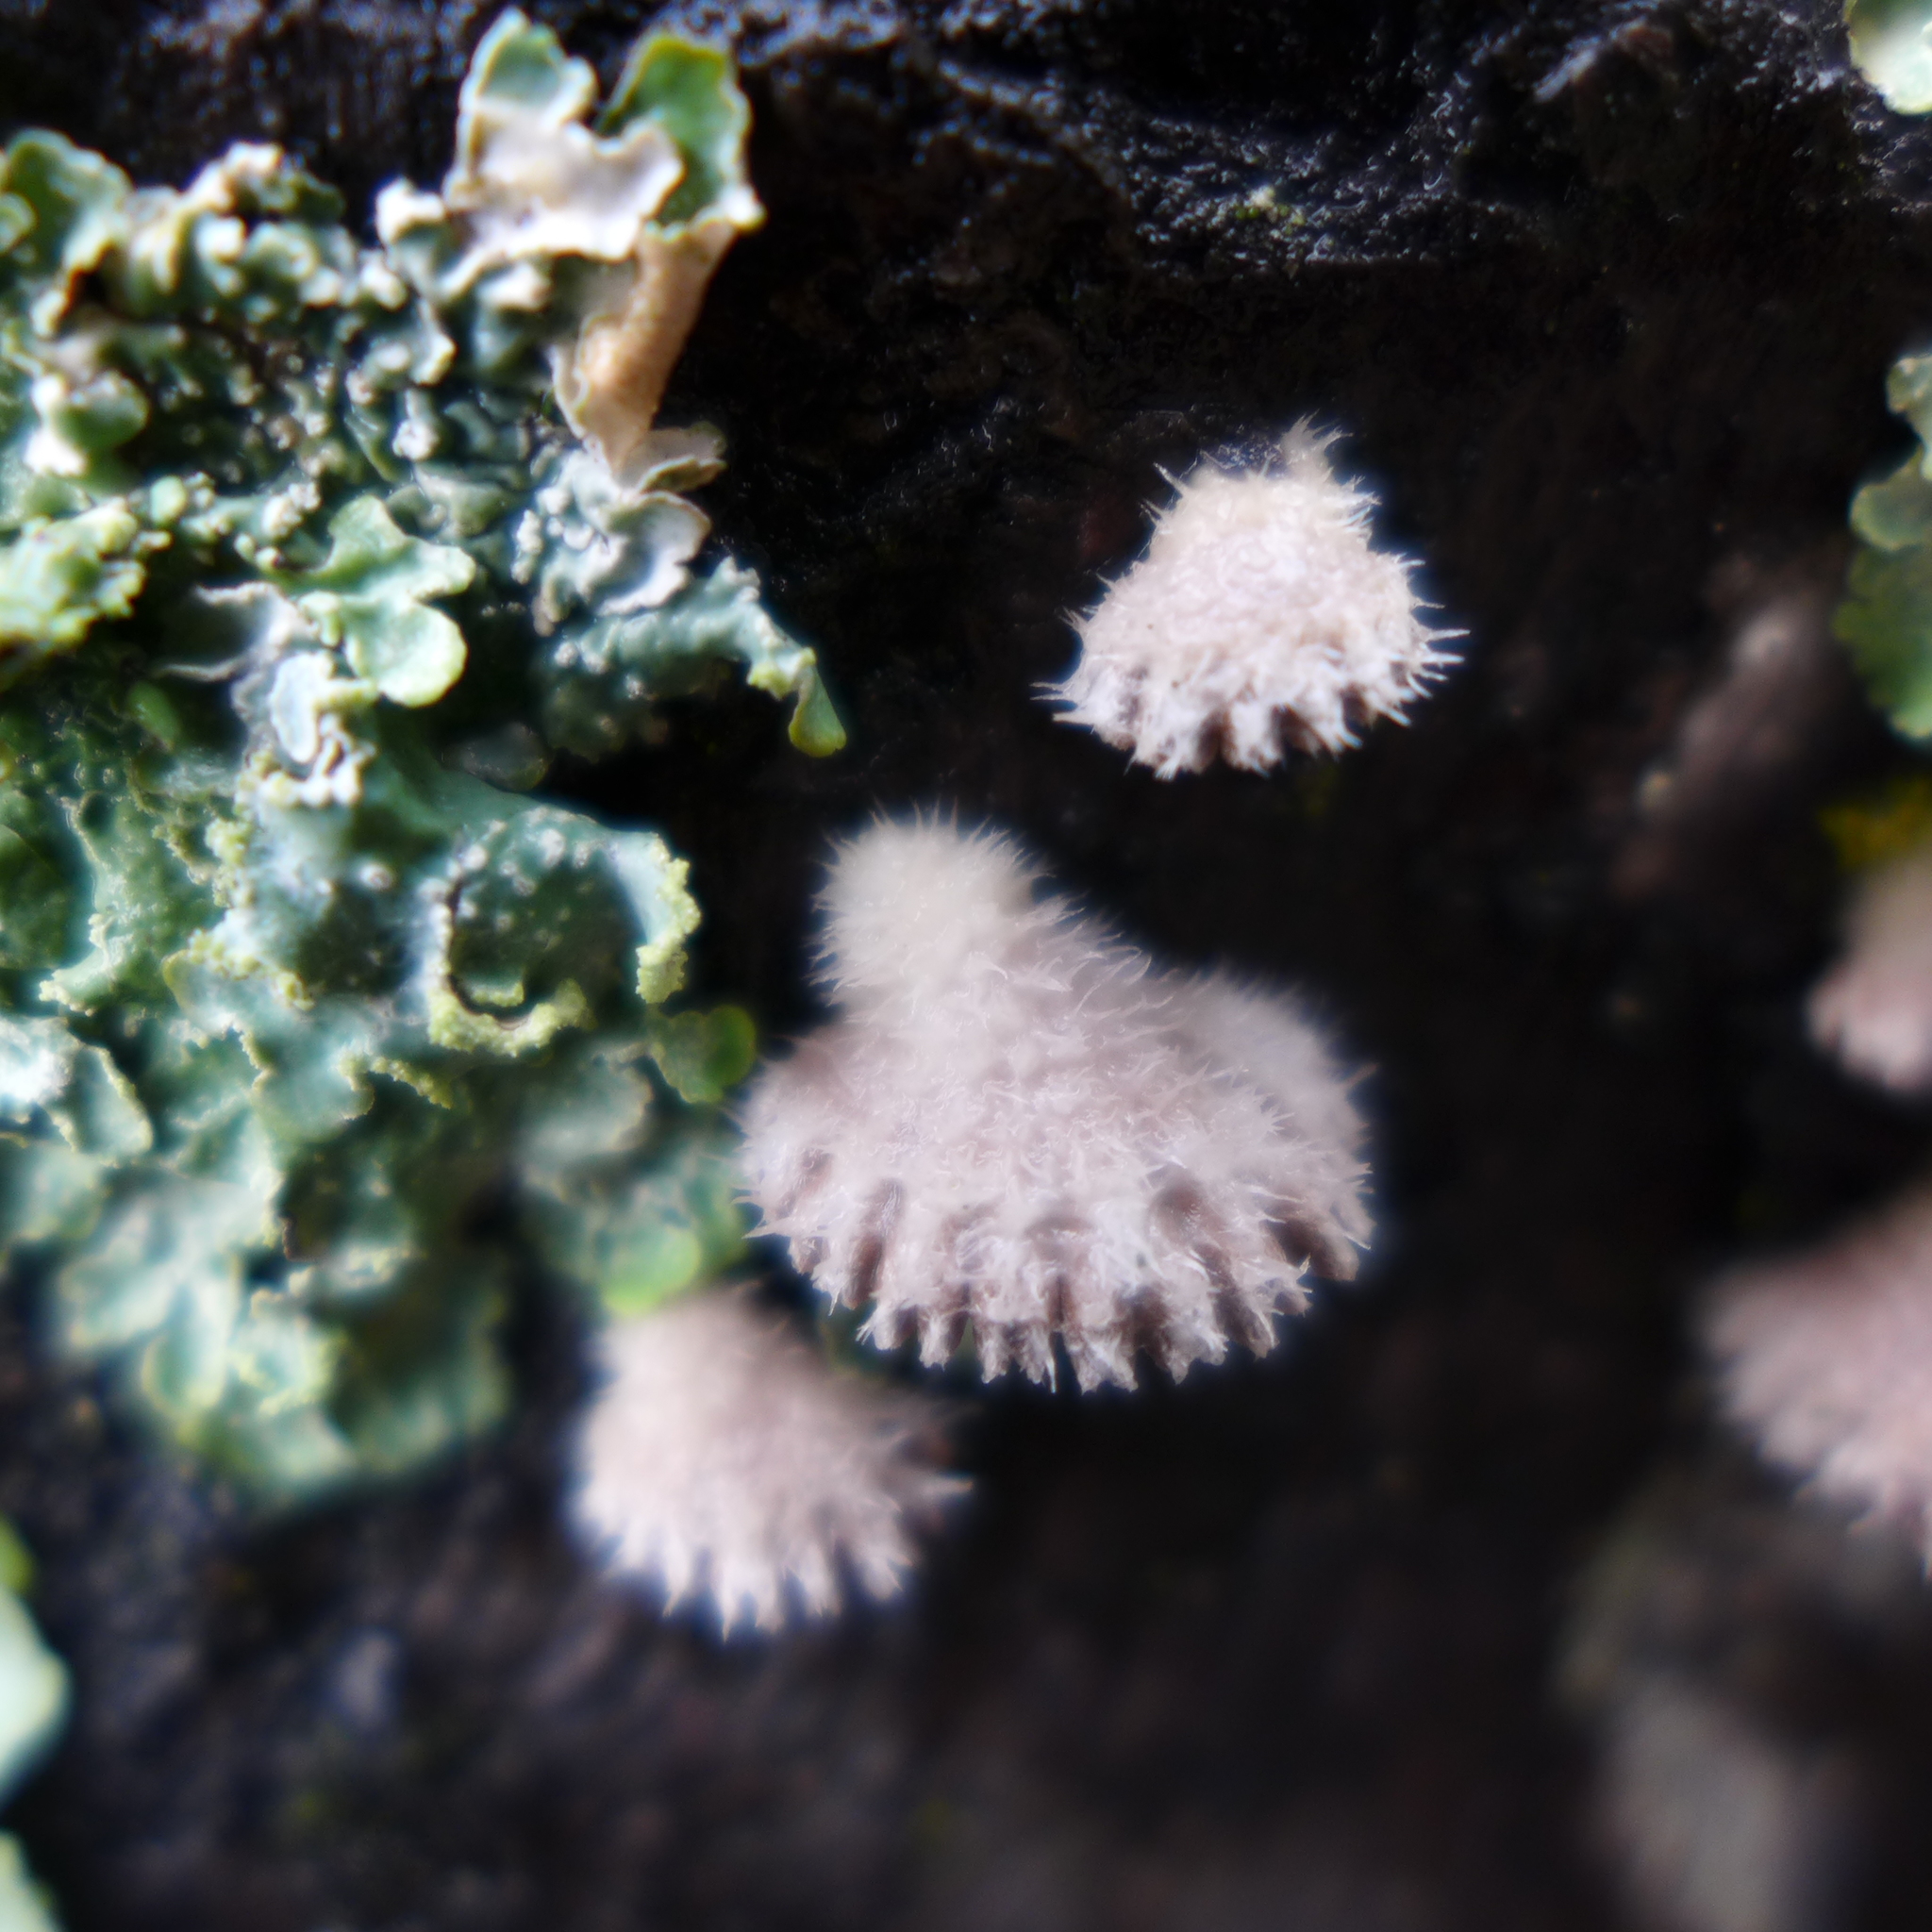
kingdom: Fungi
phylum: Basidiomycota
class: Agaricomycetes
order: Agaricales
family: Schizophyllaceae
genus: Schizophyllum
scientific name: Schizophyllum commune
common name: Common porecrust
